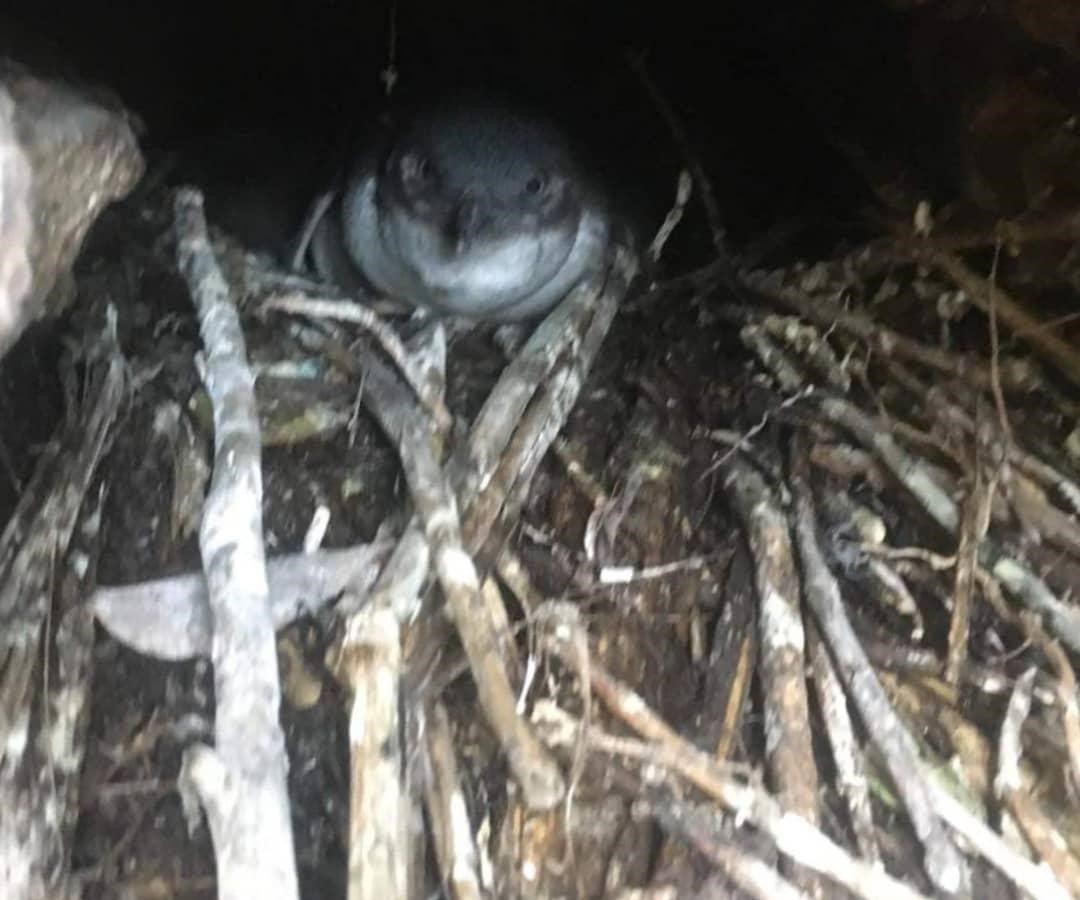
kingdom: Animalia
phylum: Chordata
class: Aves
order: Sphenisciformes
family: Spheniscidae
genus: Eudyptula
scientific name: Eudyptula minor
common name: Little penguin
